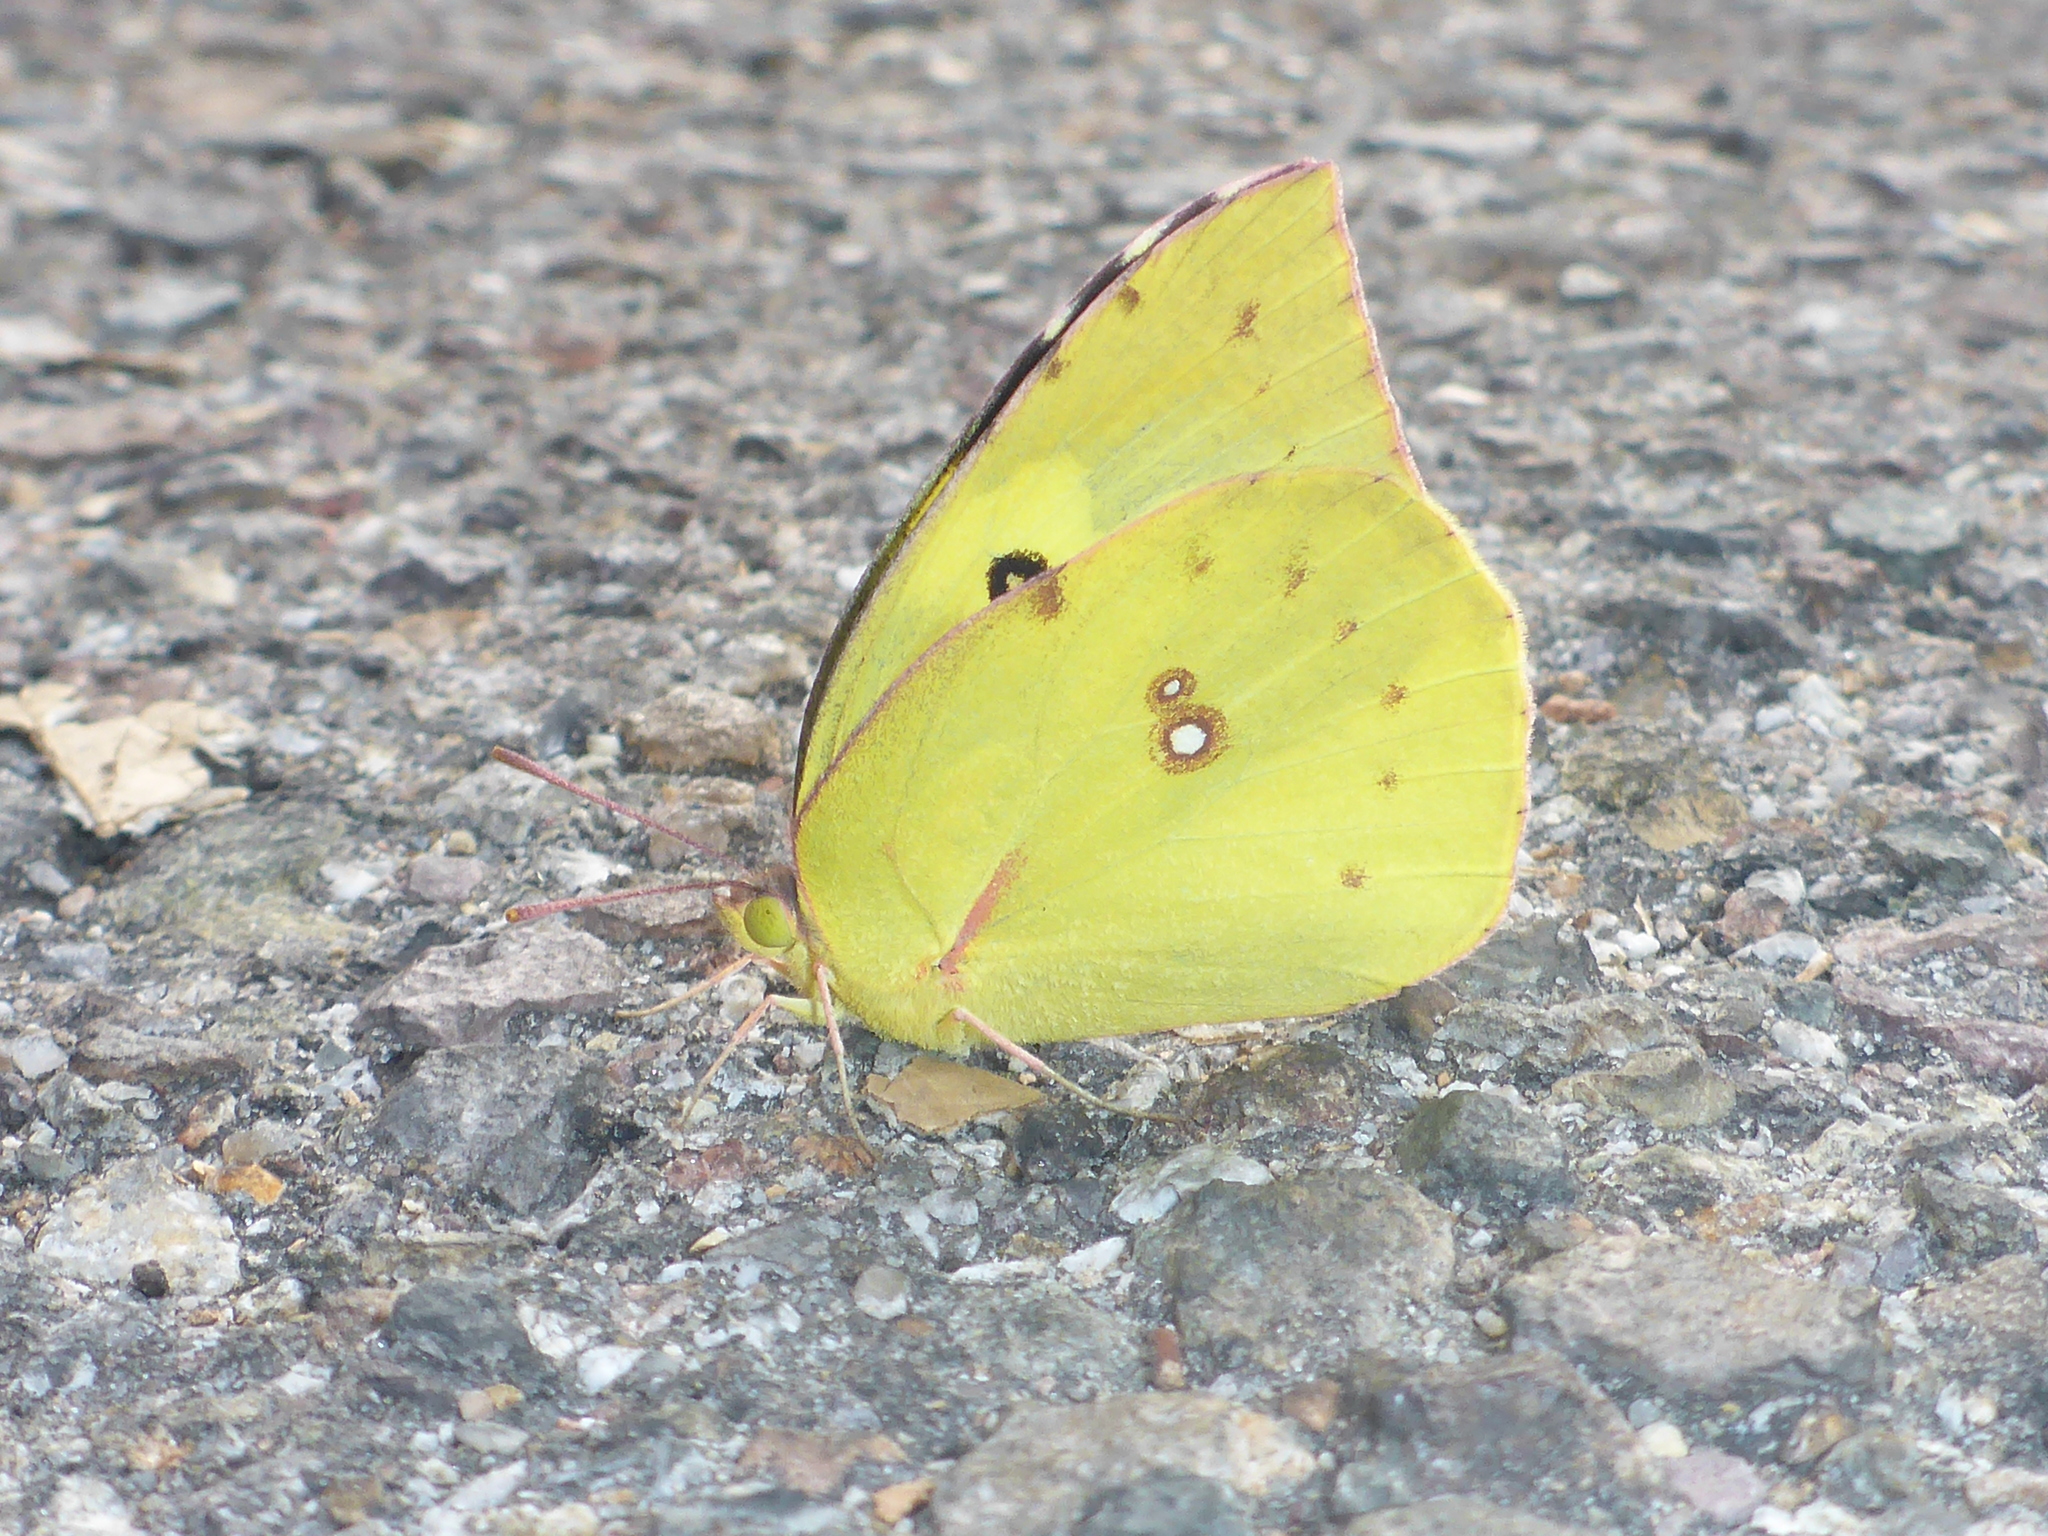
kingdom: Animalia
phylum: Arthropoda
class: Insecta
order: Lepidoptera
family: Pieridae
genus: Zerene
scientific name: Zerene cesonia
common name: Southern dogface
